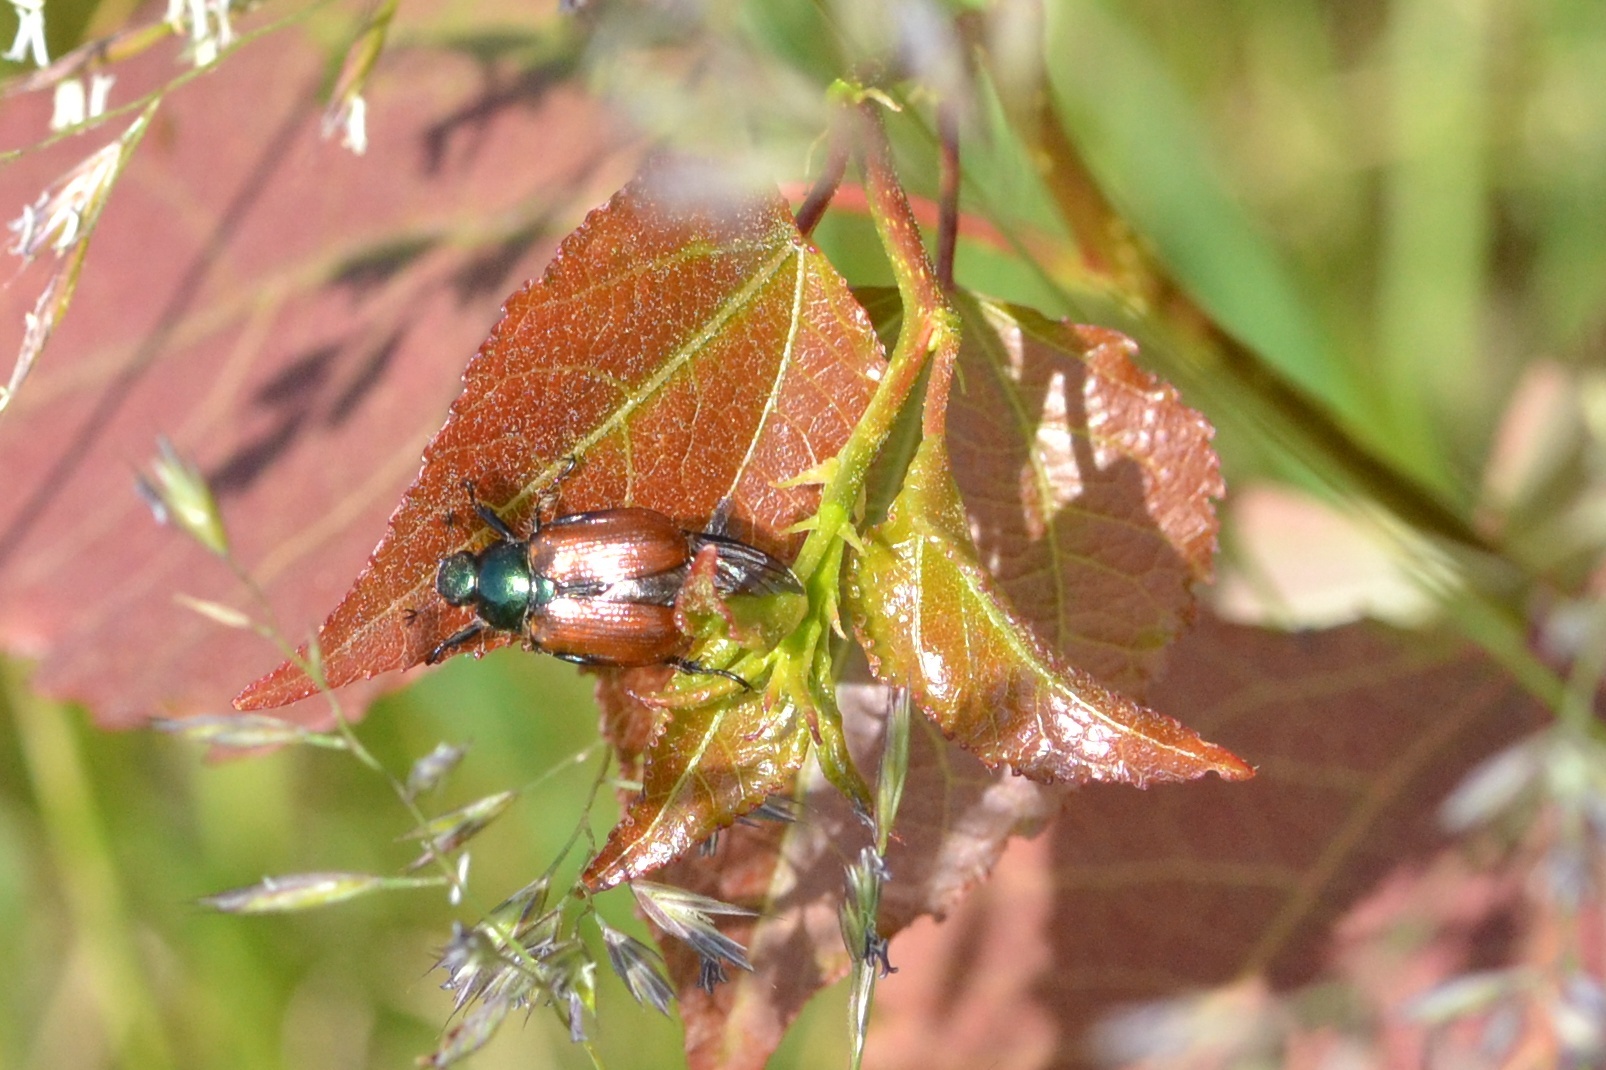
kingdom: Animalia
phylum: Arthropoda
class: Insecta
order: Coleoptera
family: Scarabaeidae
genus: Phyllopertha
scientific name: Phyllopertha horticola
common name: Garden chafer
